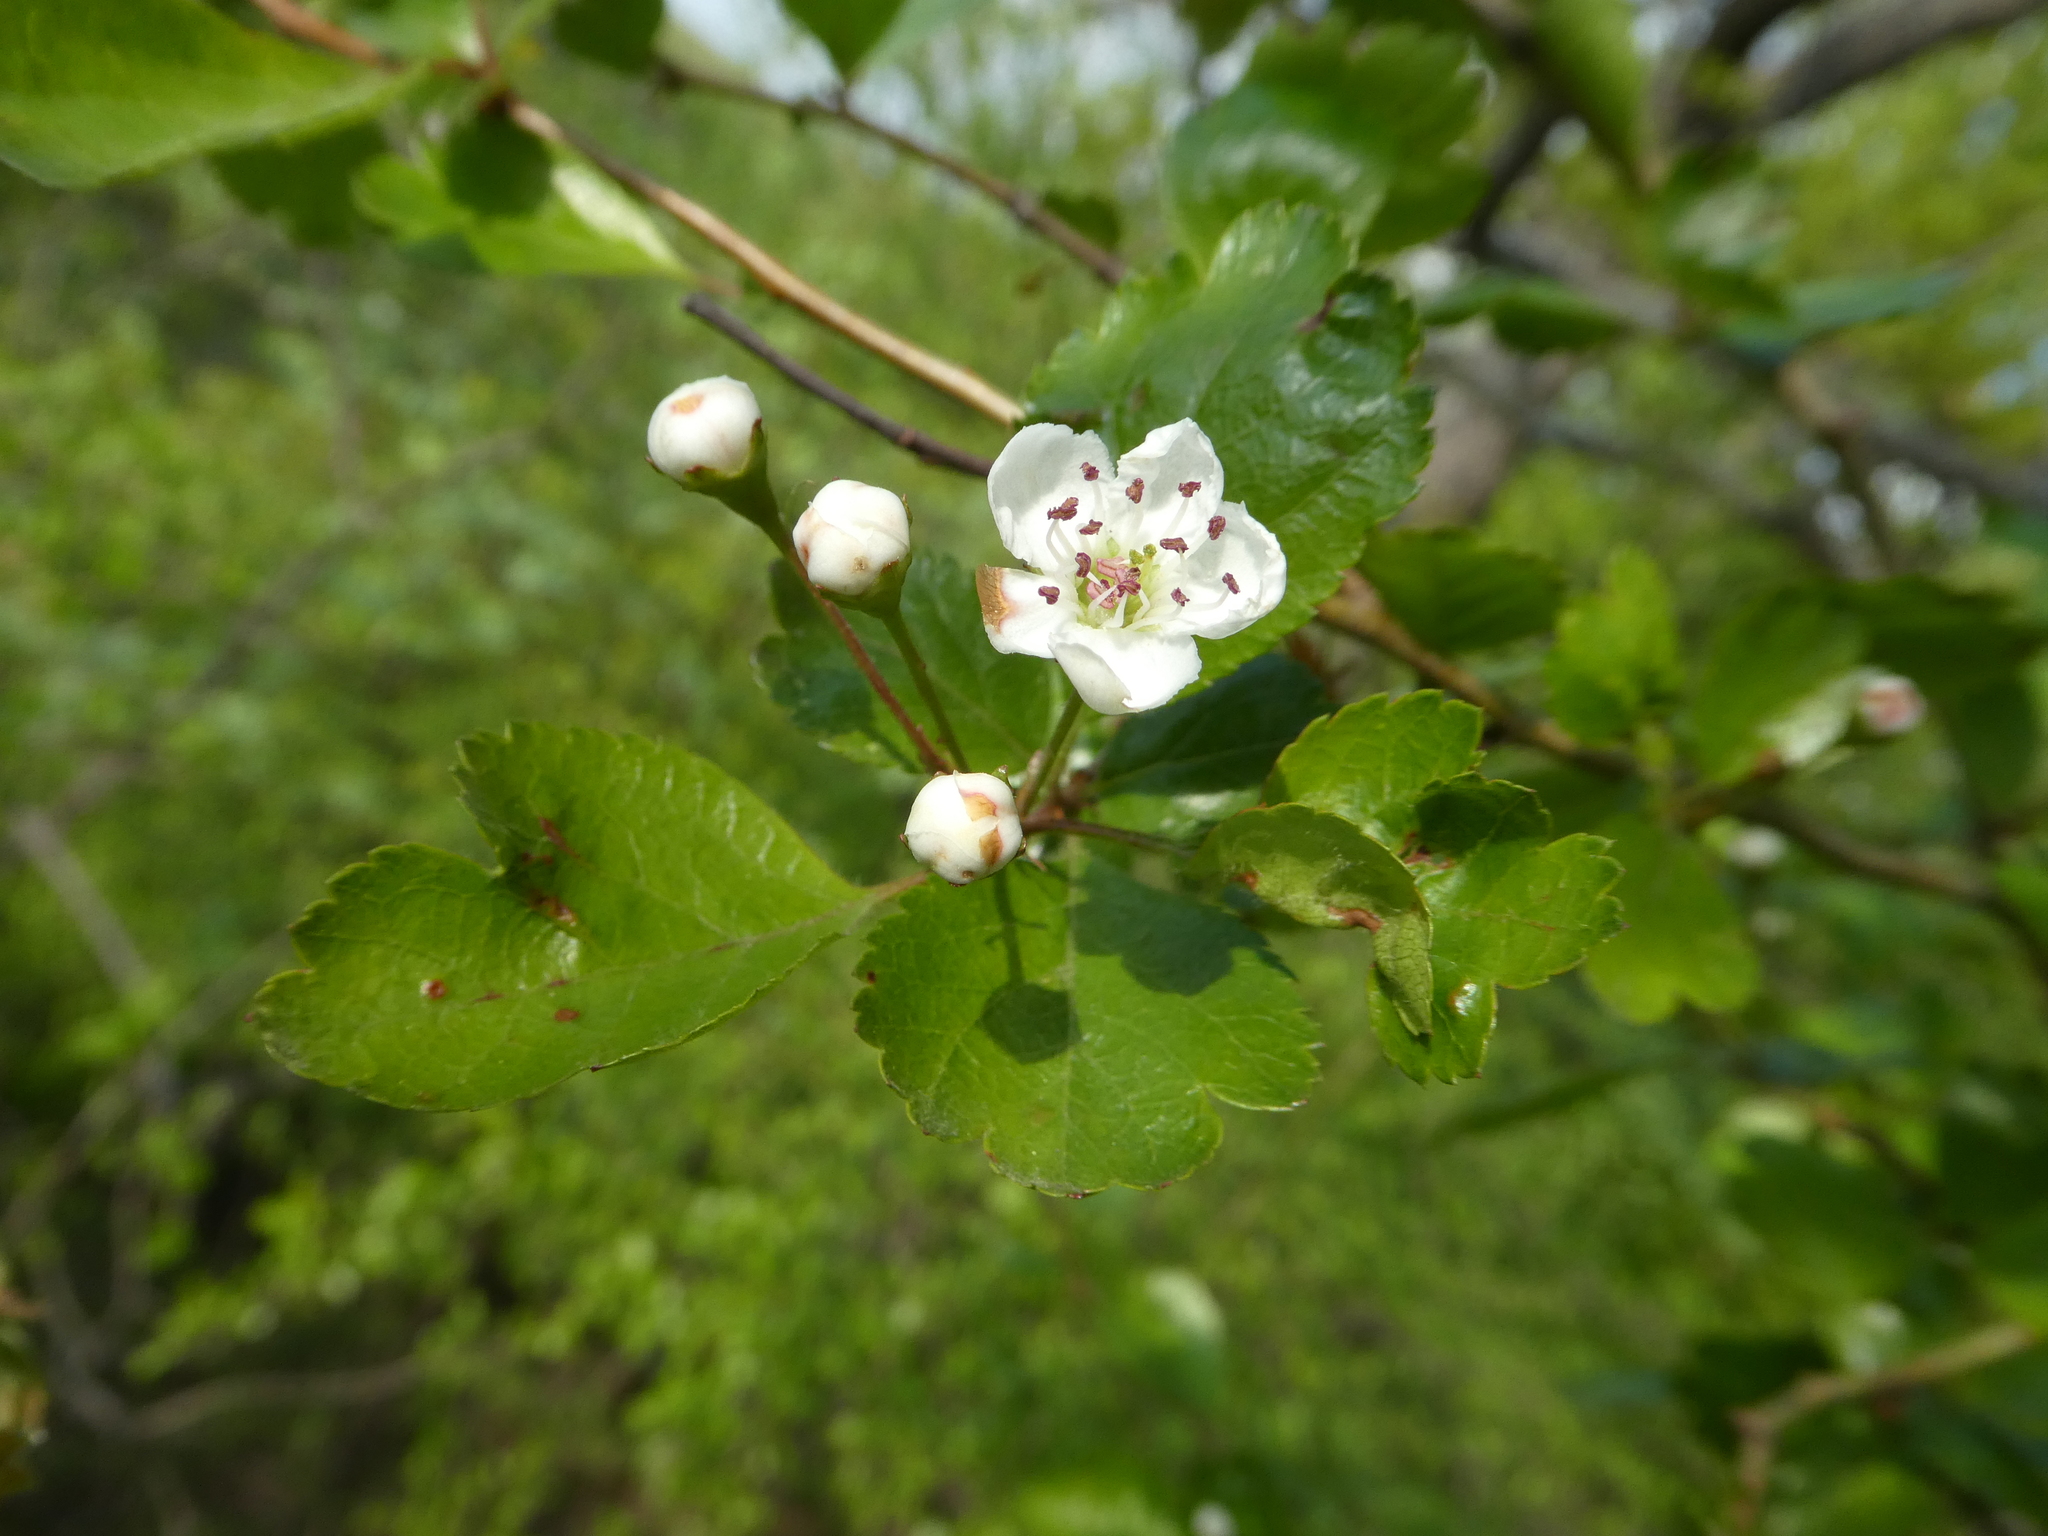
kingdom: Plantae
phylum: Tracheophyta
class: Magnoliopsida
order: Rosales
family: Rosaceae
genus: Crataegus
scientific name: Crataegus laevigata
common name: Midland hawthorn
